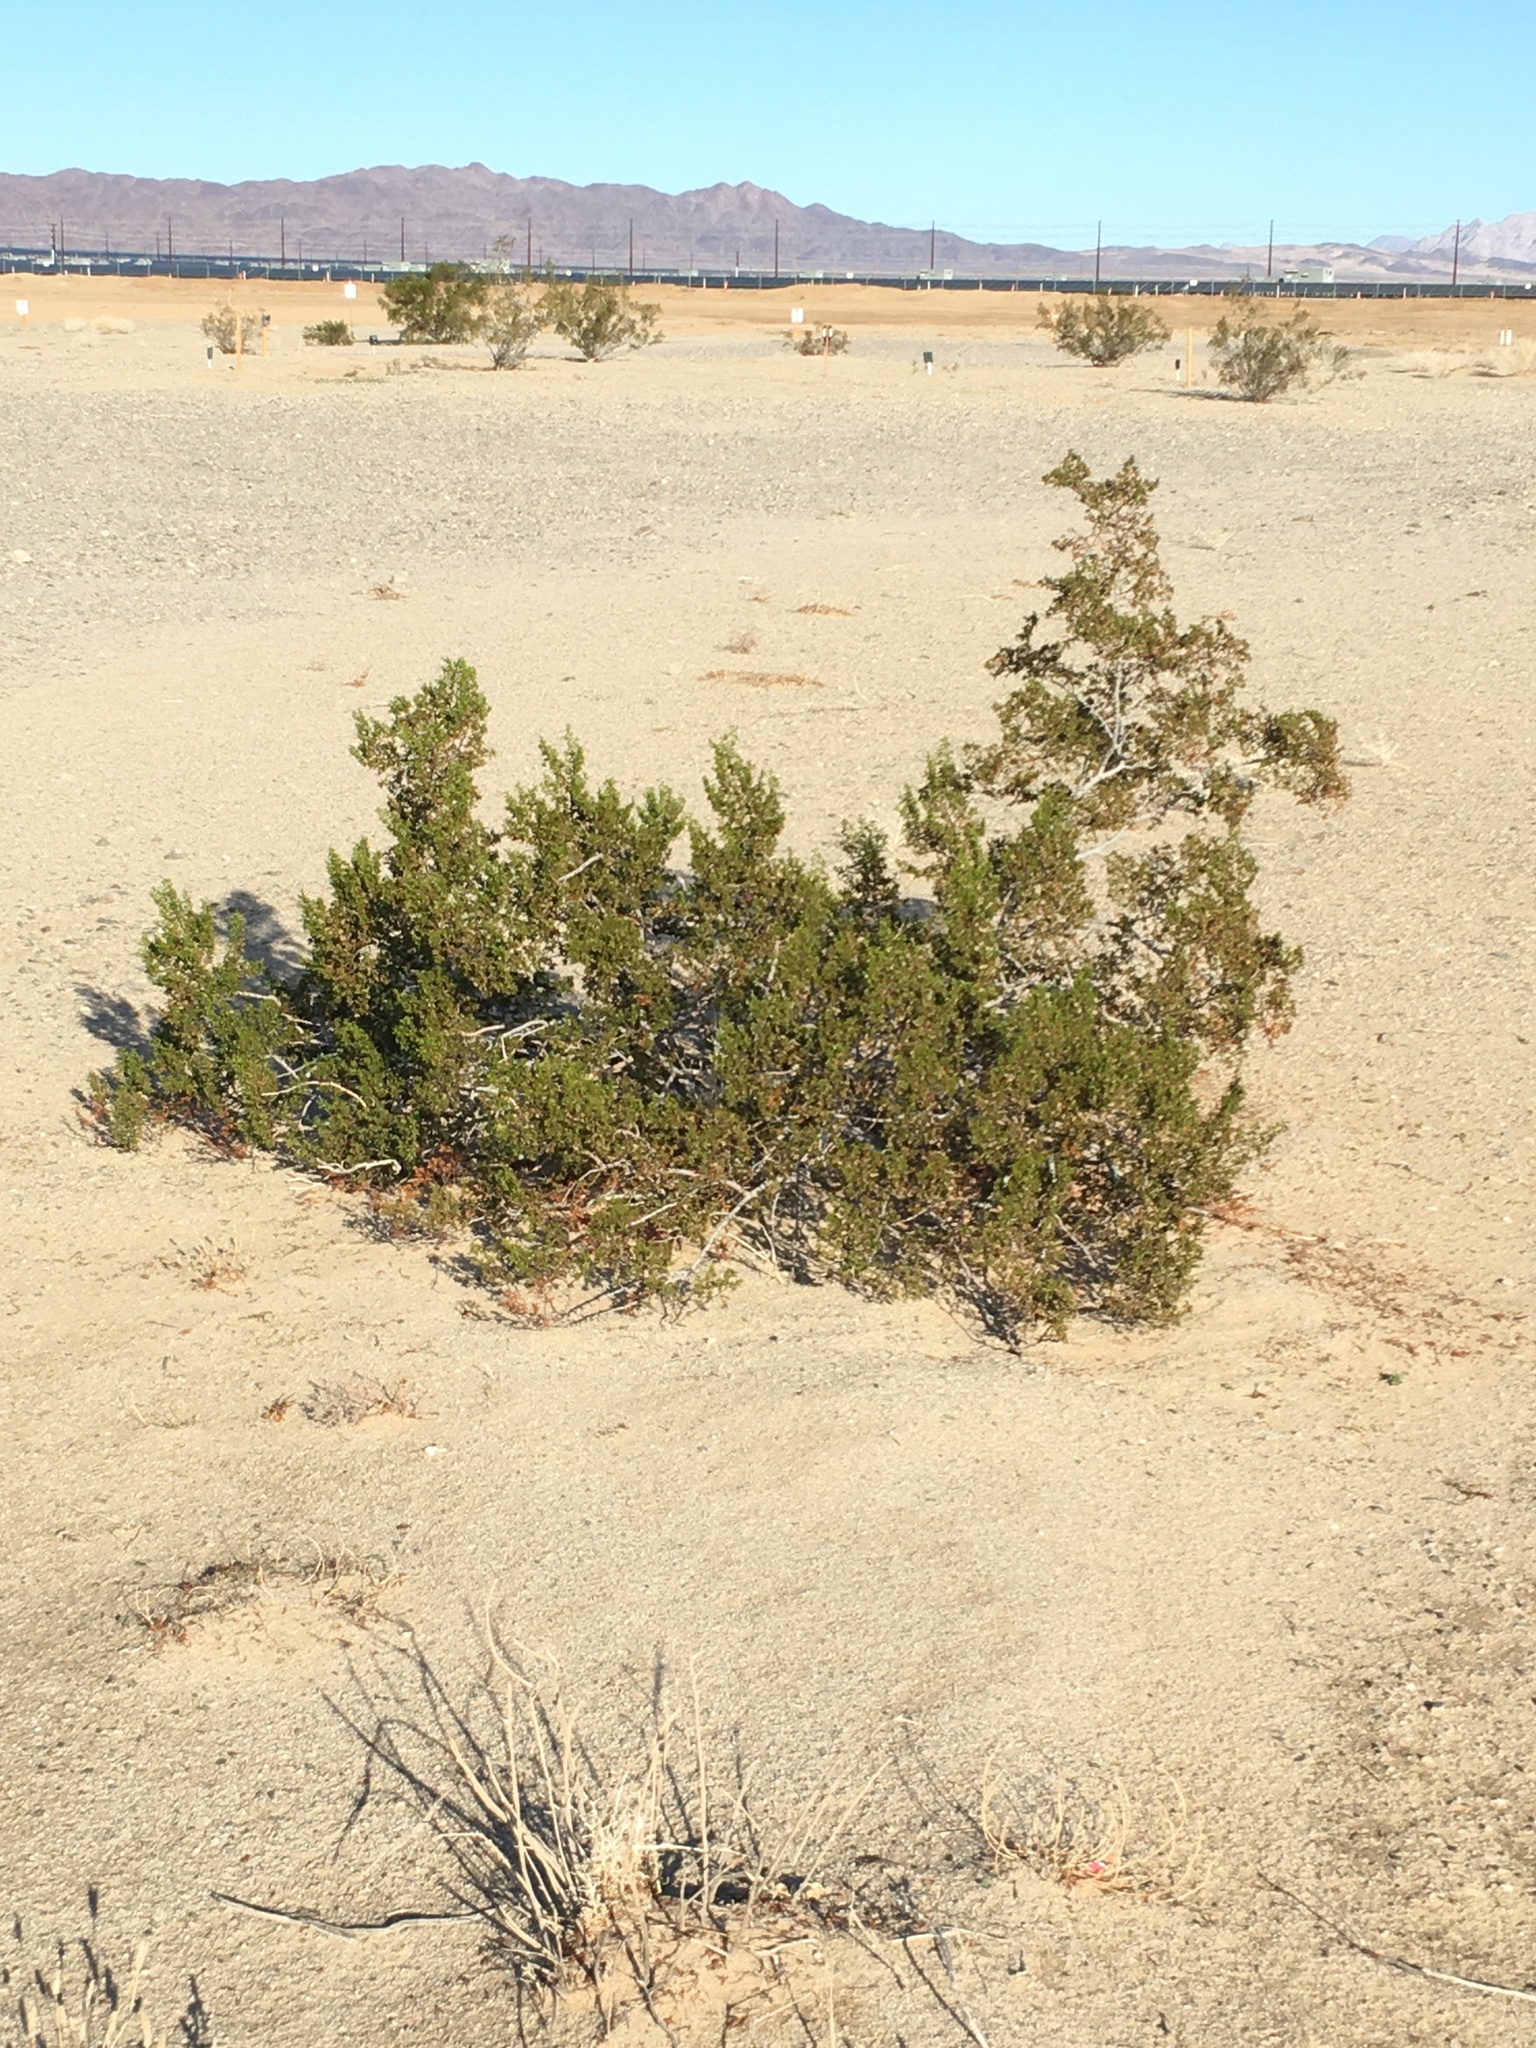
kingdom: Plantae
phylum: Tracheophyta
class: Magnoliopsida
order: Zygophyllales
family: Zygophyllaceae
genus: Larrea
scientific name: Larrea tridentata
